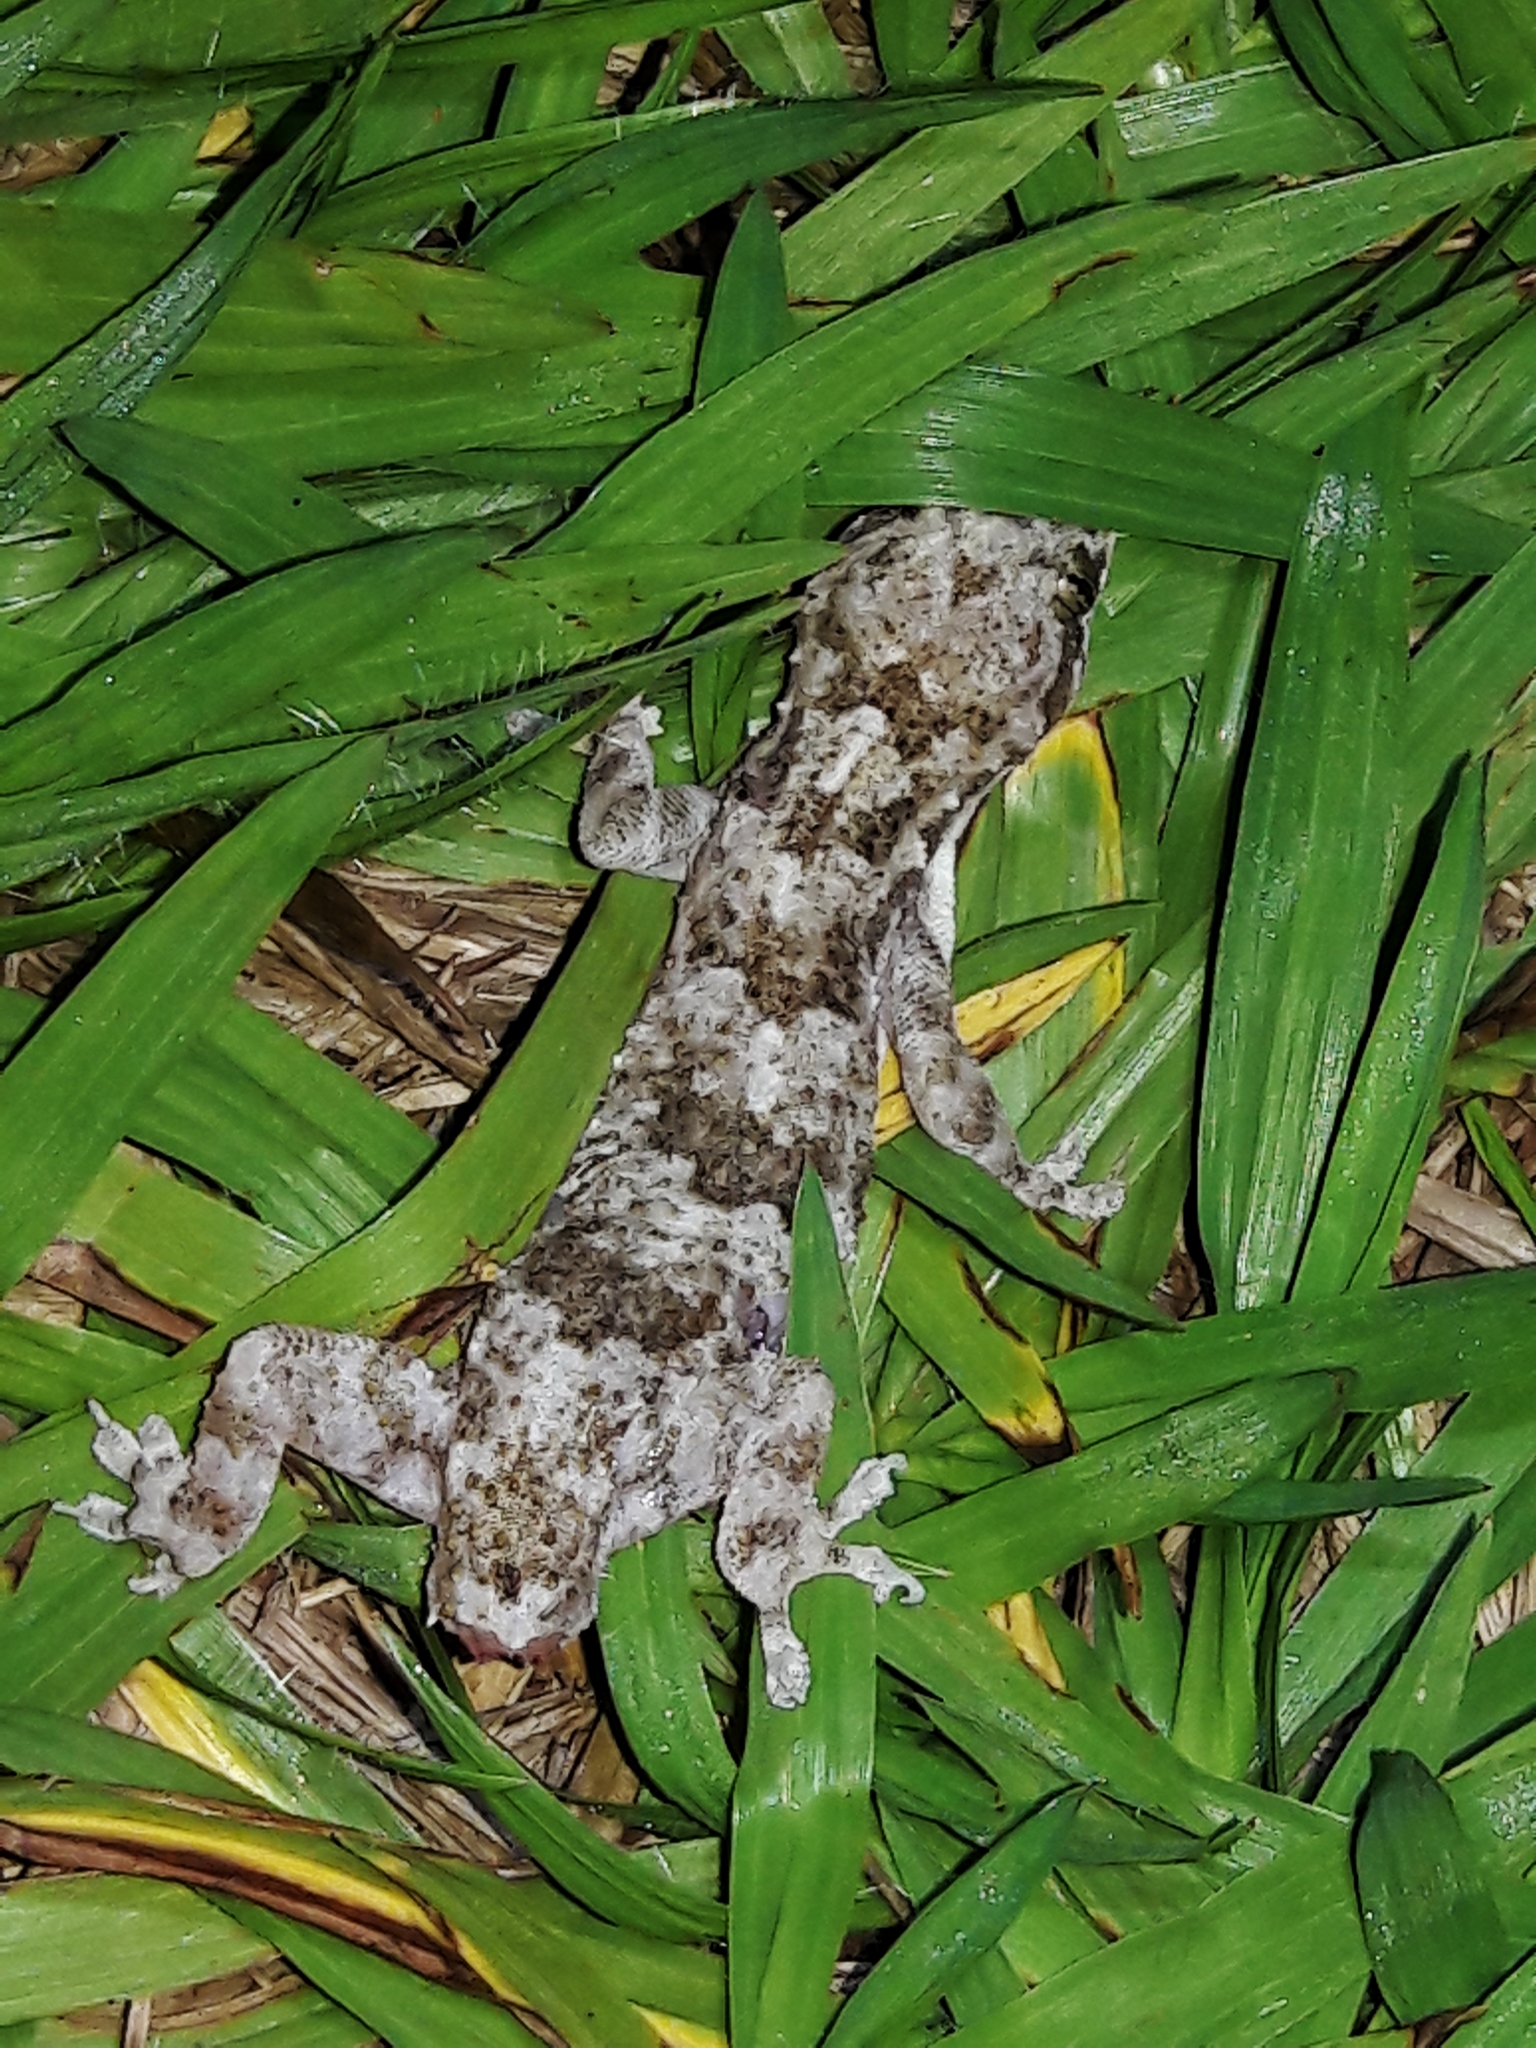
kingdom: Animalia
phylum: Chordata
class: Squamata
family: Gekkonidae
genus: Hemidactylus
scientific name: Hemidactylus mabouia
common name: House gecko
